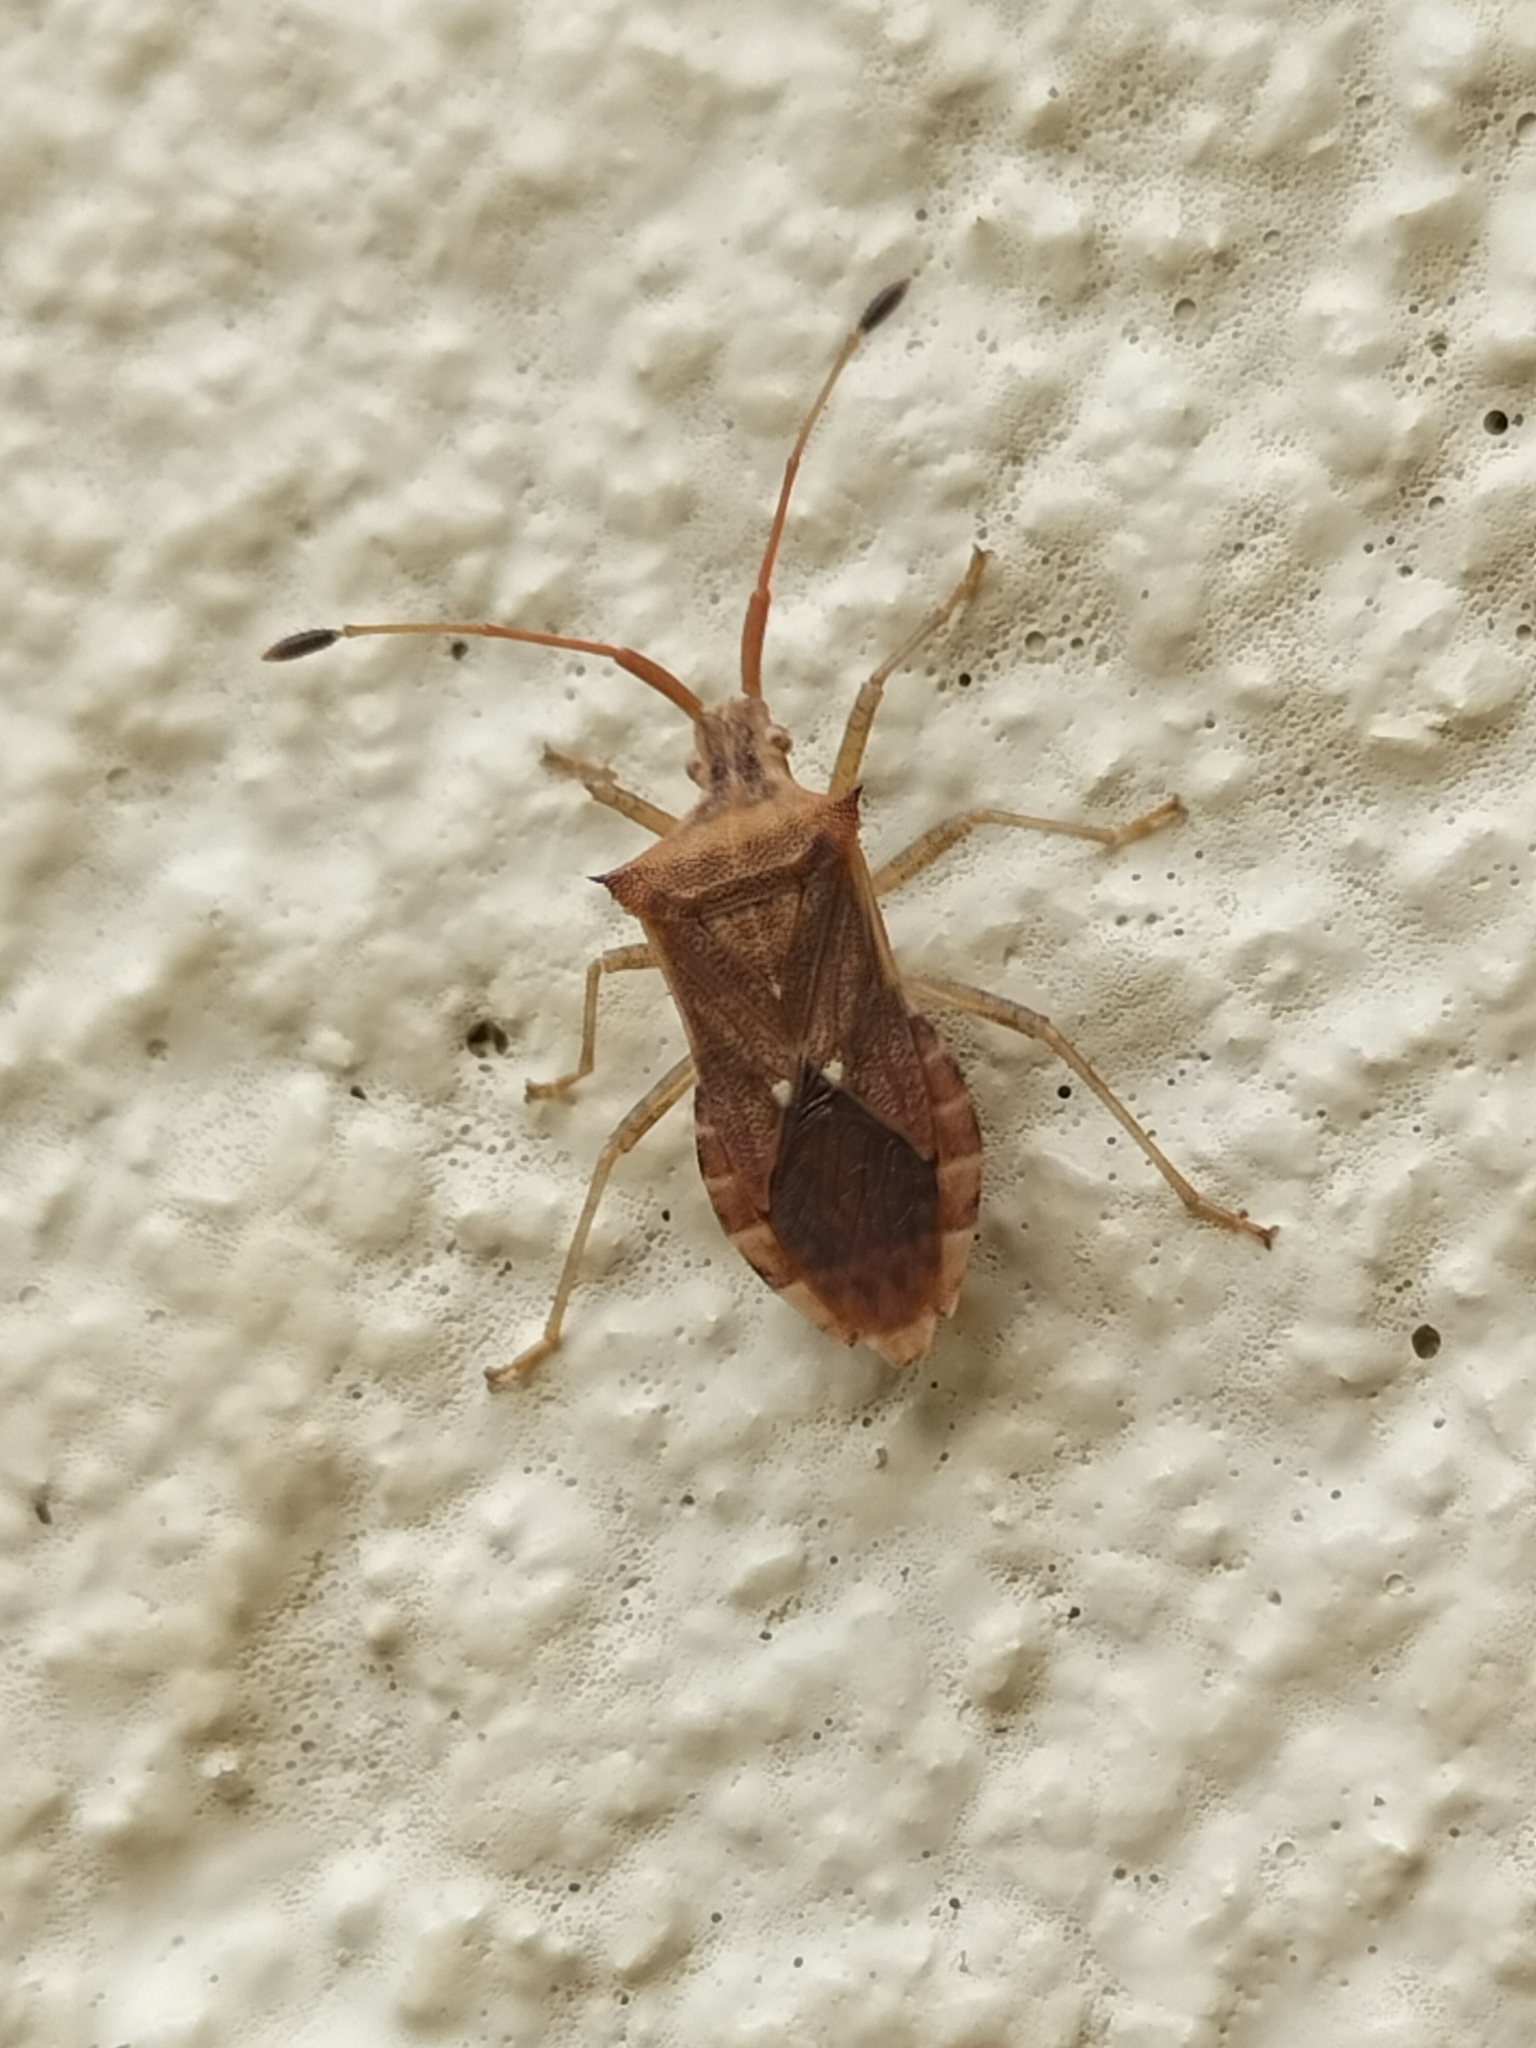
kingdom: Animalia
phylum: Arthropoda
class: Insecta
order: Hemiptera
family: Coreidae
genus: Cletus
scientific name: Cletus minutus
